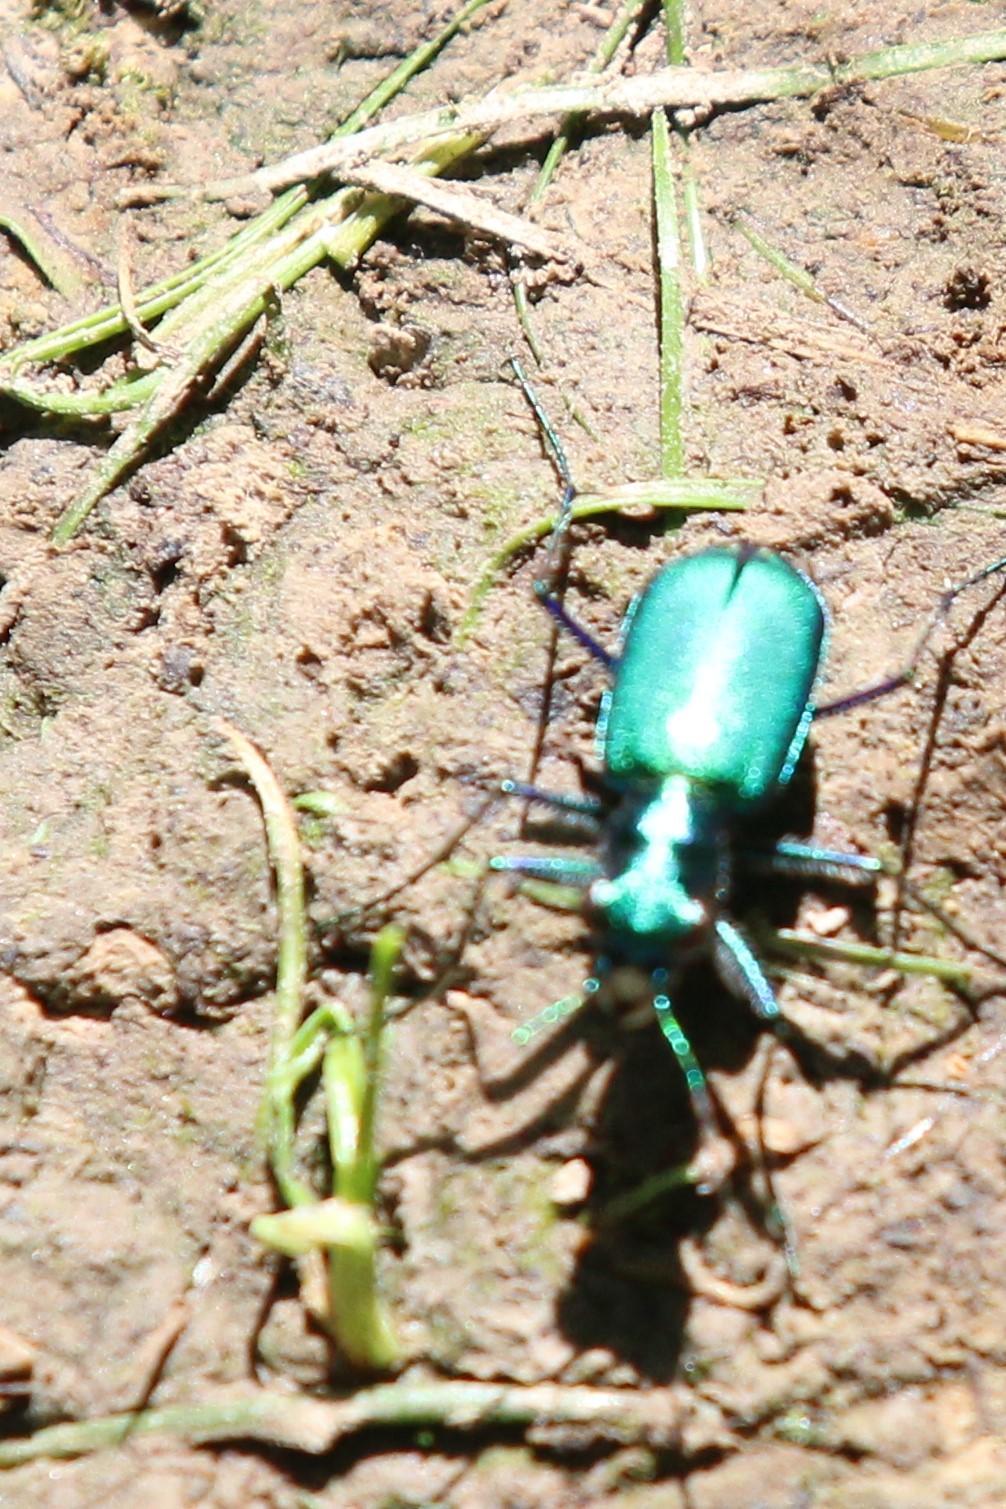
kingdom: Animalia
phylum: Arthropoda
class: Insecta
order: Coleoptera
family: Carabidae
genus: Cicindela
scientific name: Cicindela sexguttata
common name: Six-spotted tiger beetle
